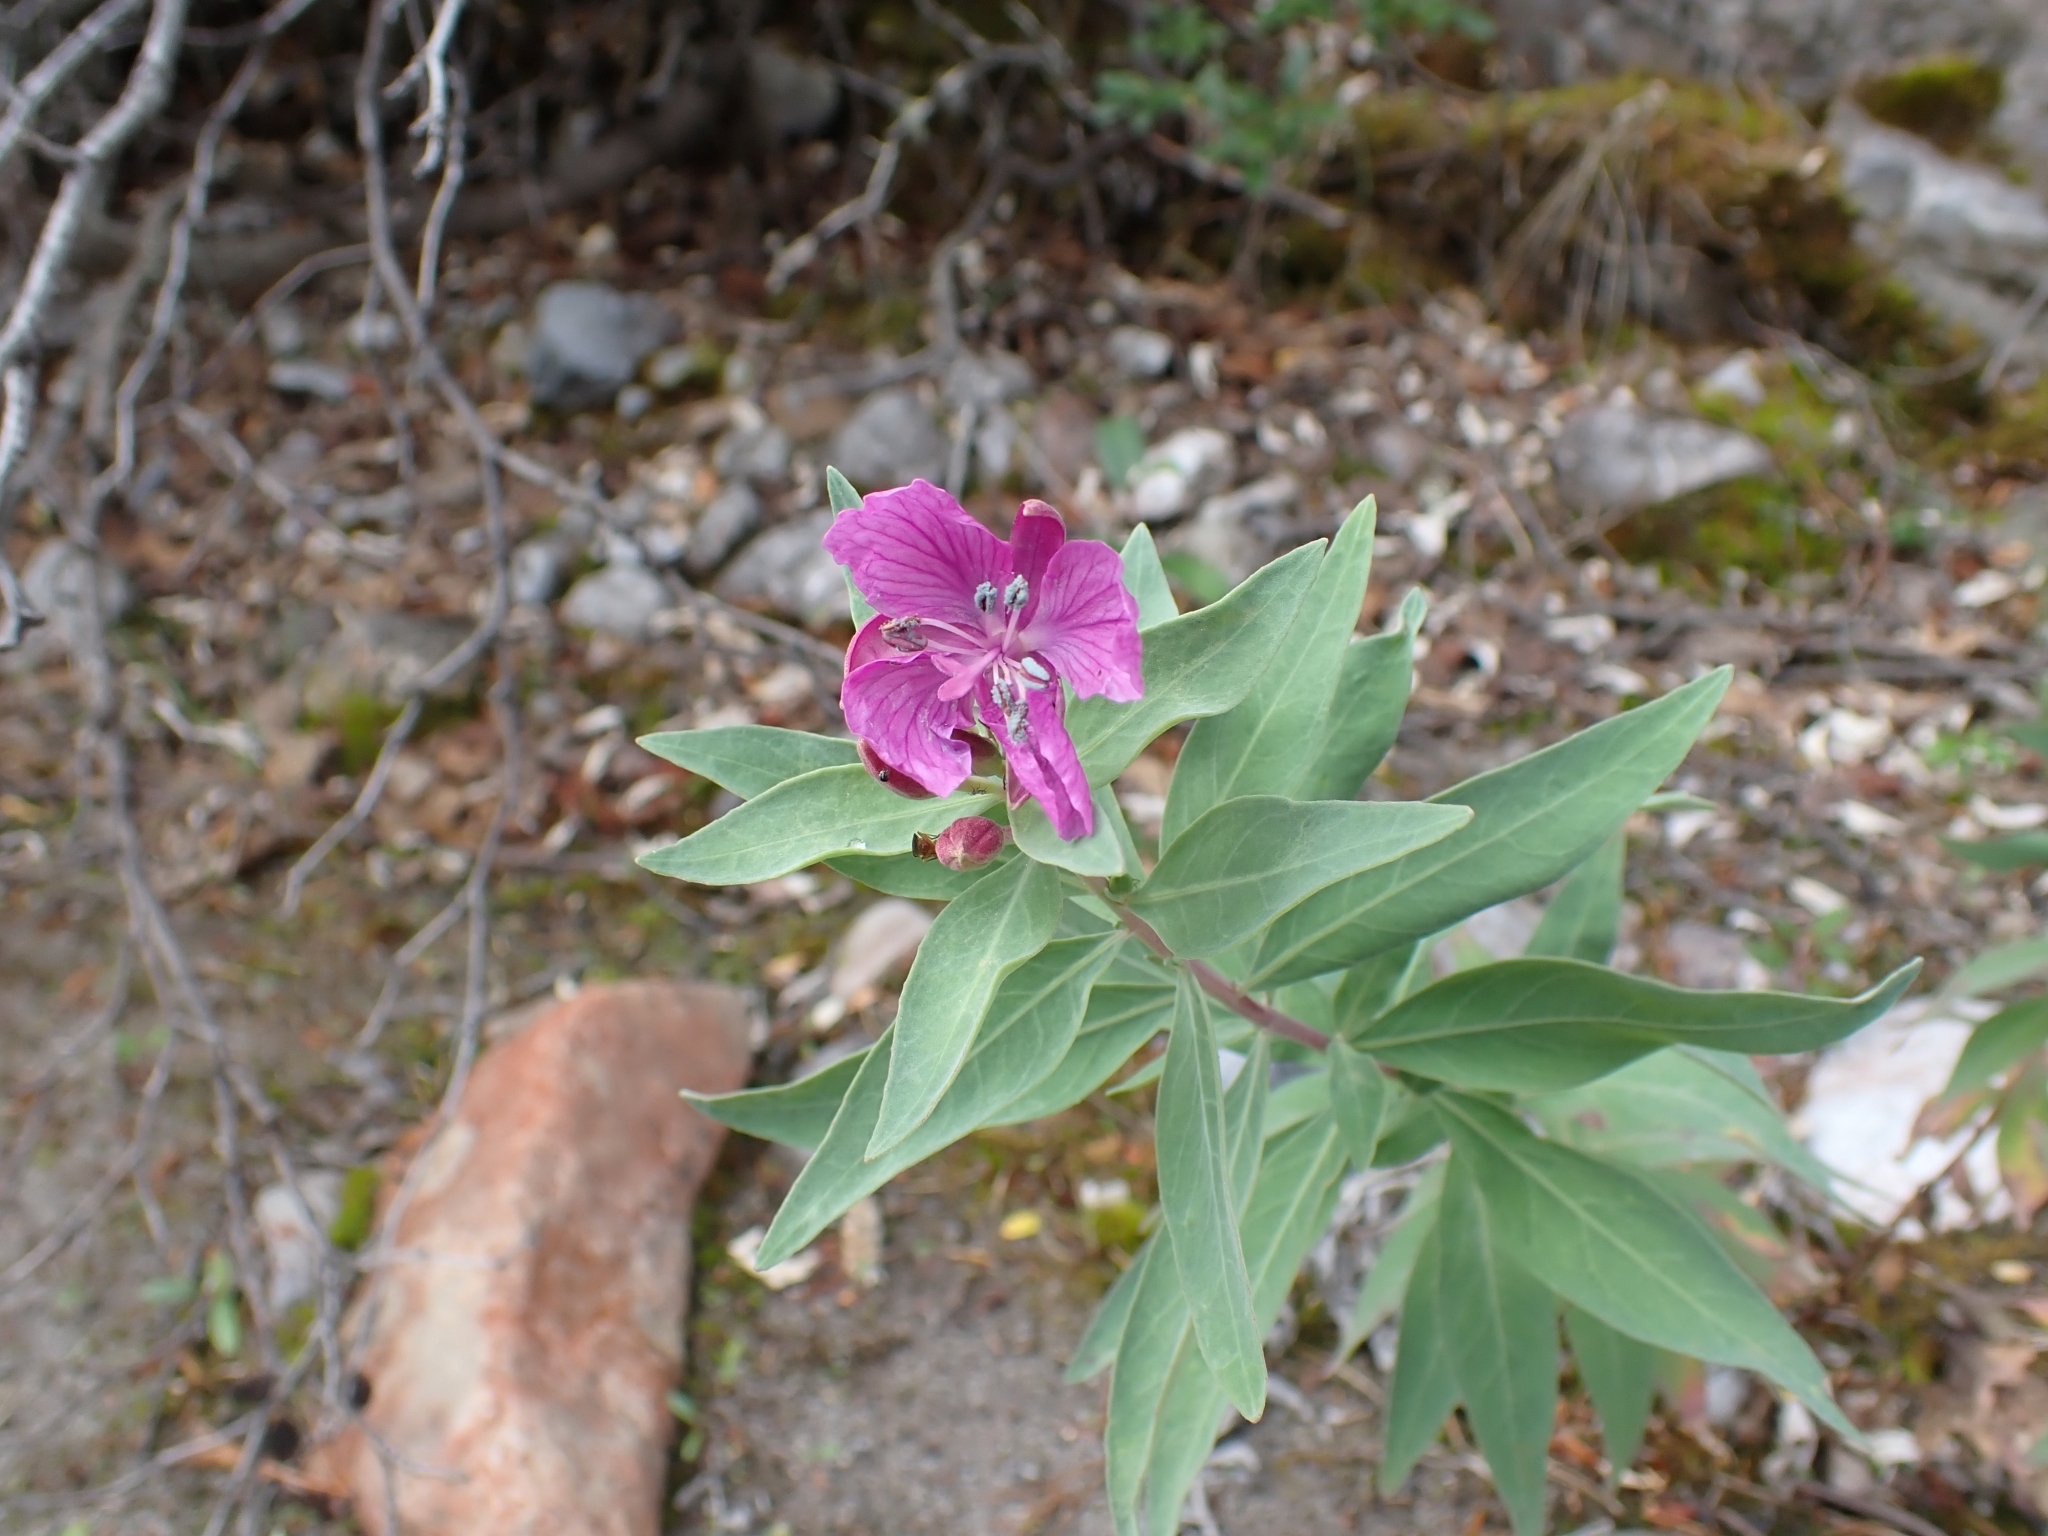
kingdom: Plantae
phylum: Tracheophyta
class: Magnoliopsida
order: Myrtales
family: Onagraceae
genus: Chamaenerion
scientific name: Chamaenerion latifolium
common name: Dwarf fireweed
